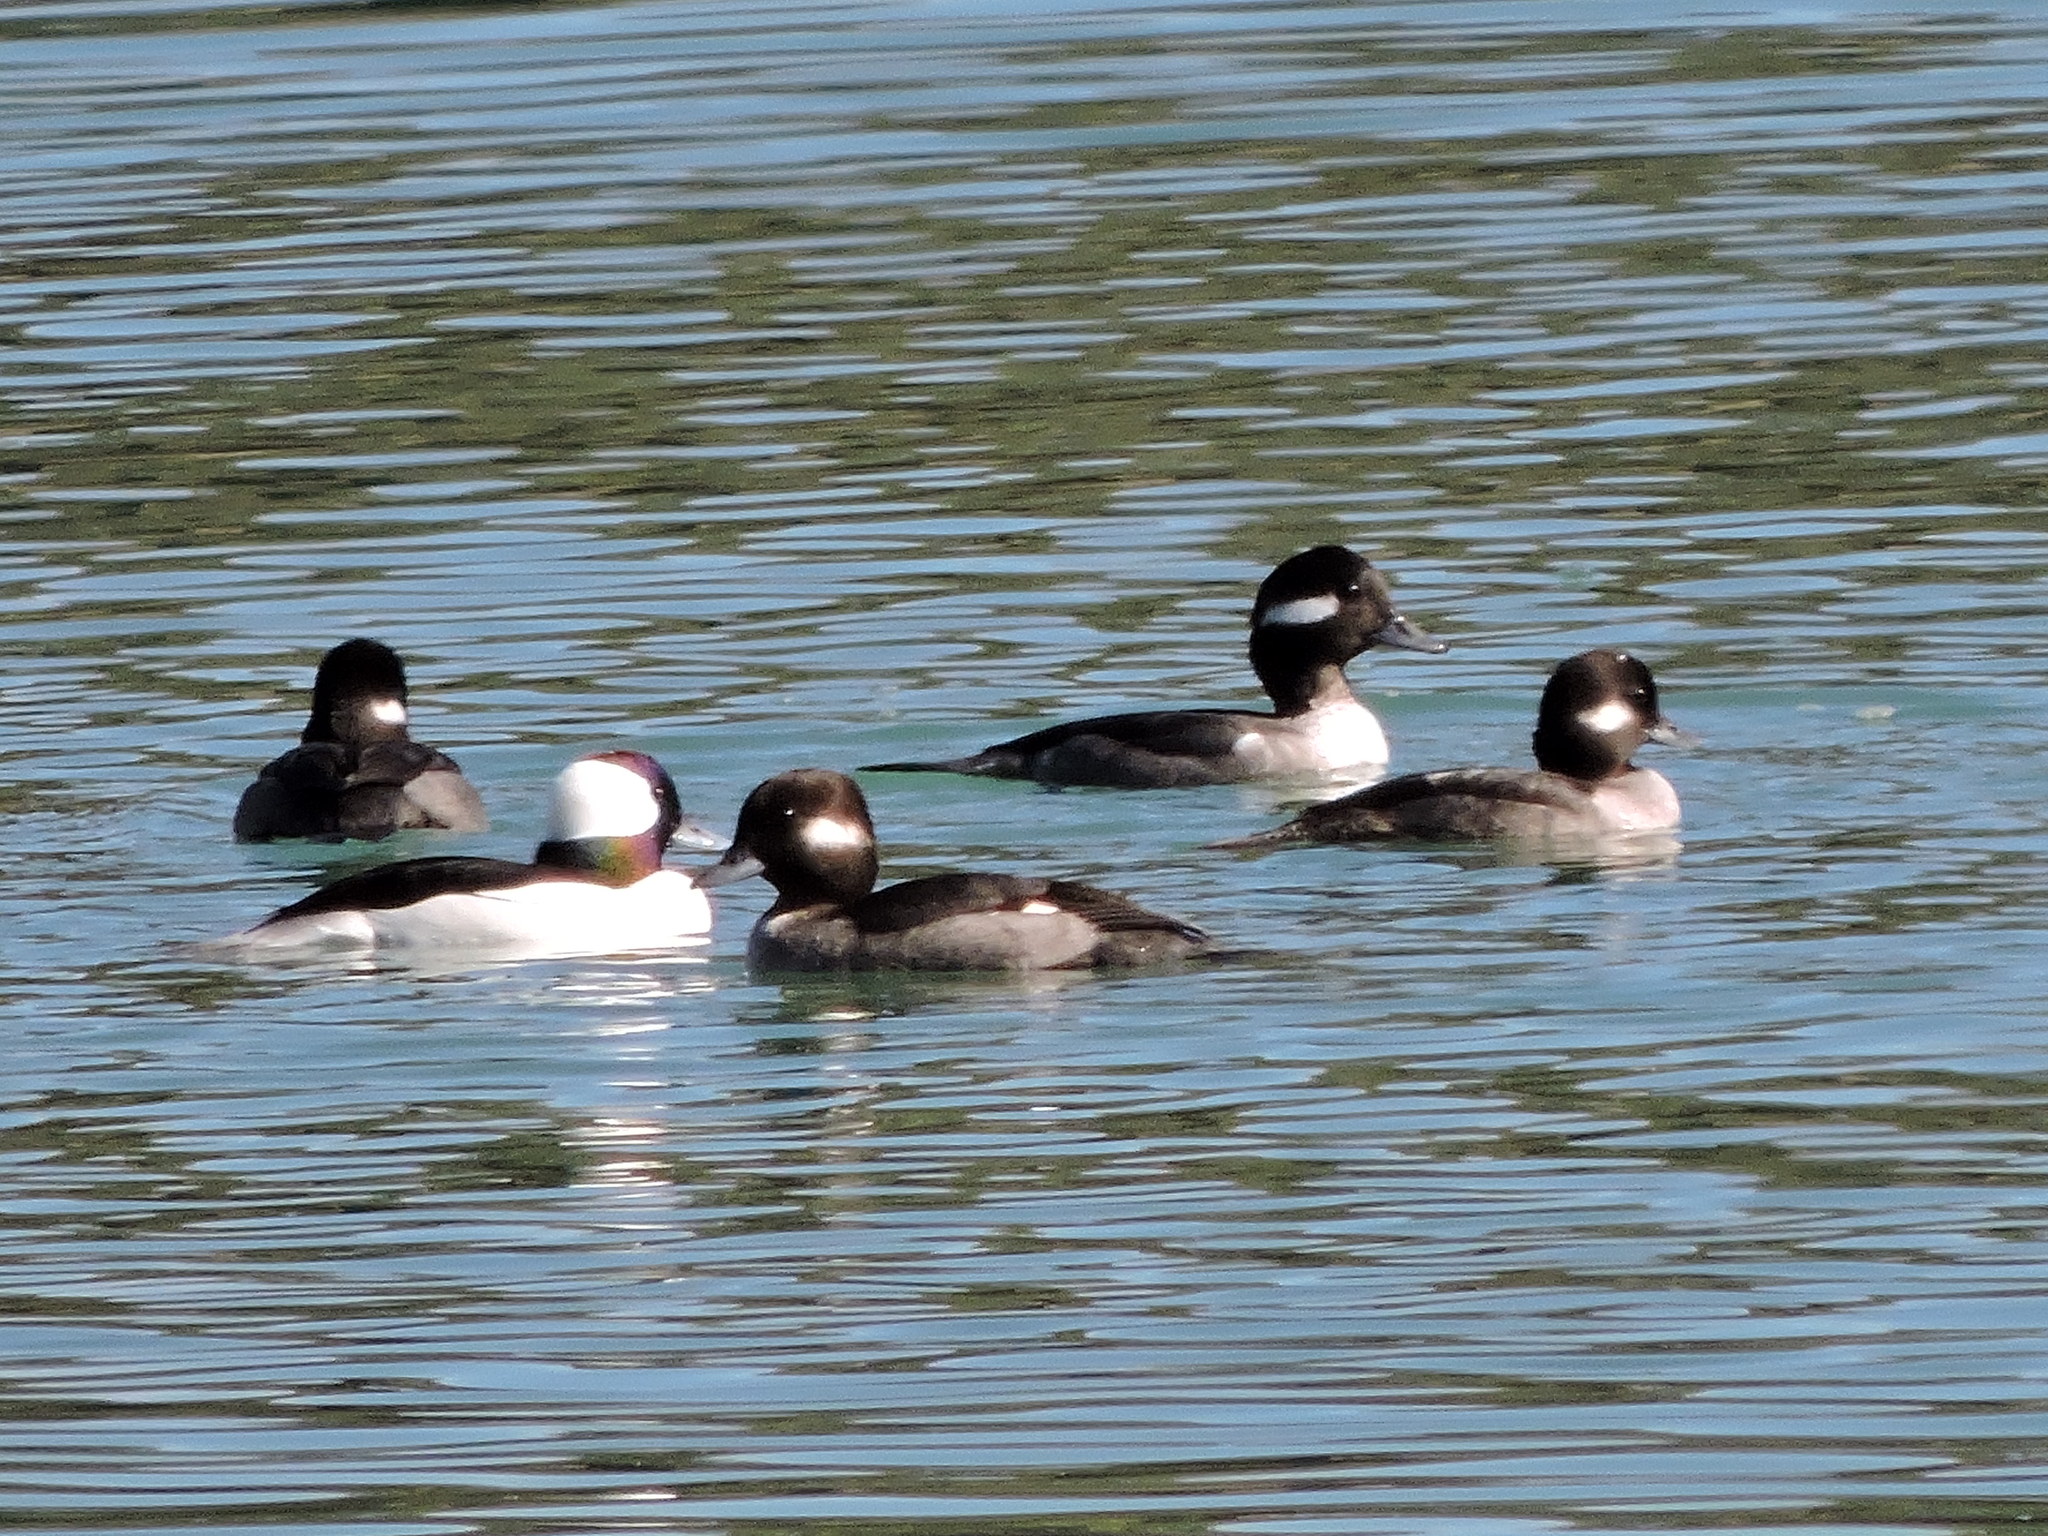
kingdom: Animalia
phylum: Chordata
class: Aves
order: Anseriformes
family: Anatidae
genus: Bucephala
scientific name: Bucephala albeola
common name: Bufflehead
